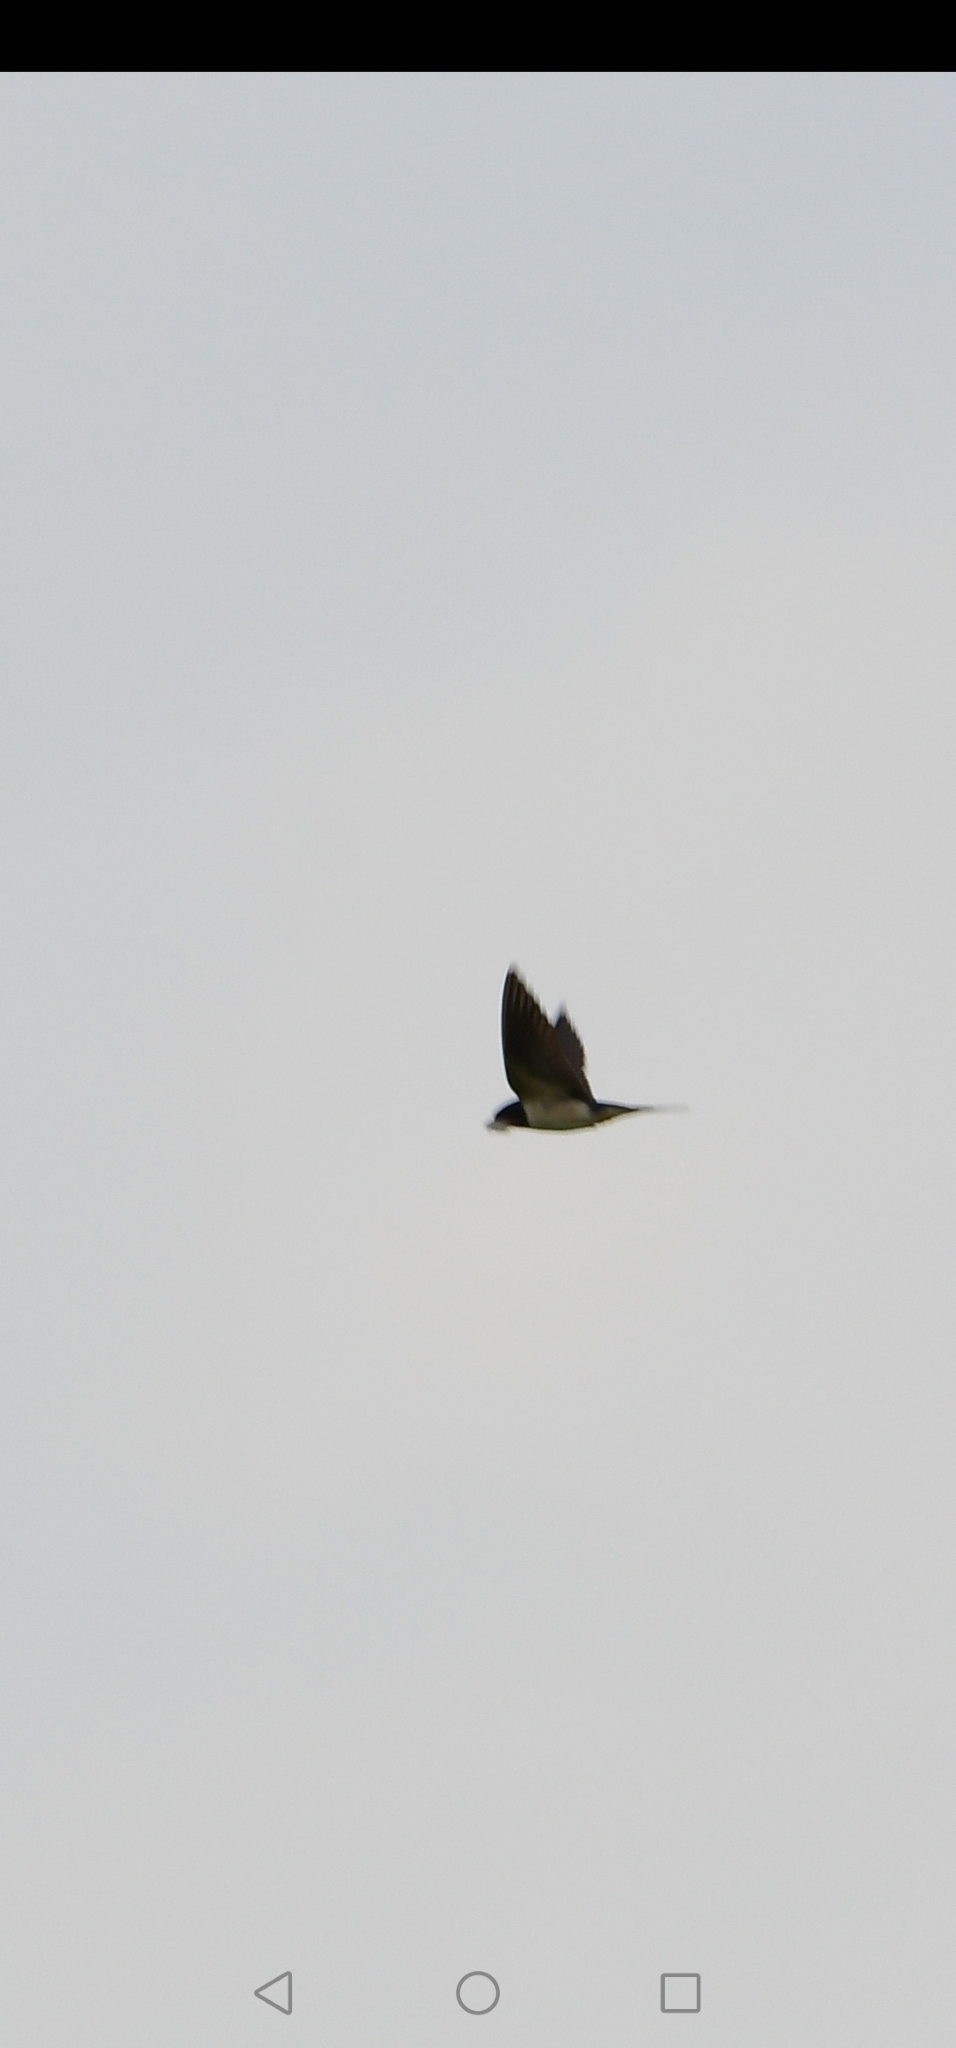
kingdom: Animalia
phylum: Chordata
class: Aves
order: Passeriformes
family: Hirundinidae
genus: Hirundo
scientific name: Hirundo rustica
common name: Barn swallow
